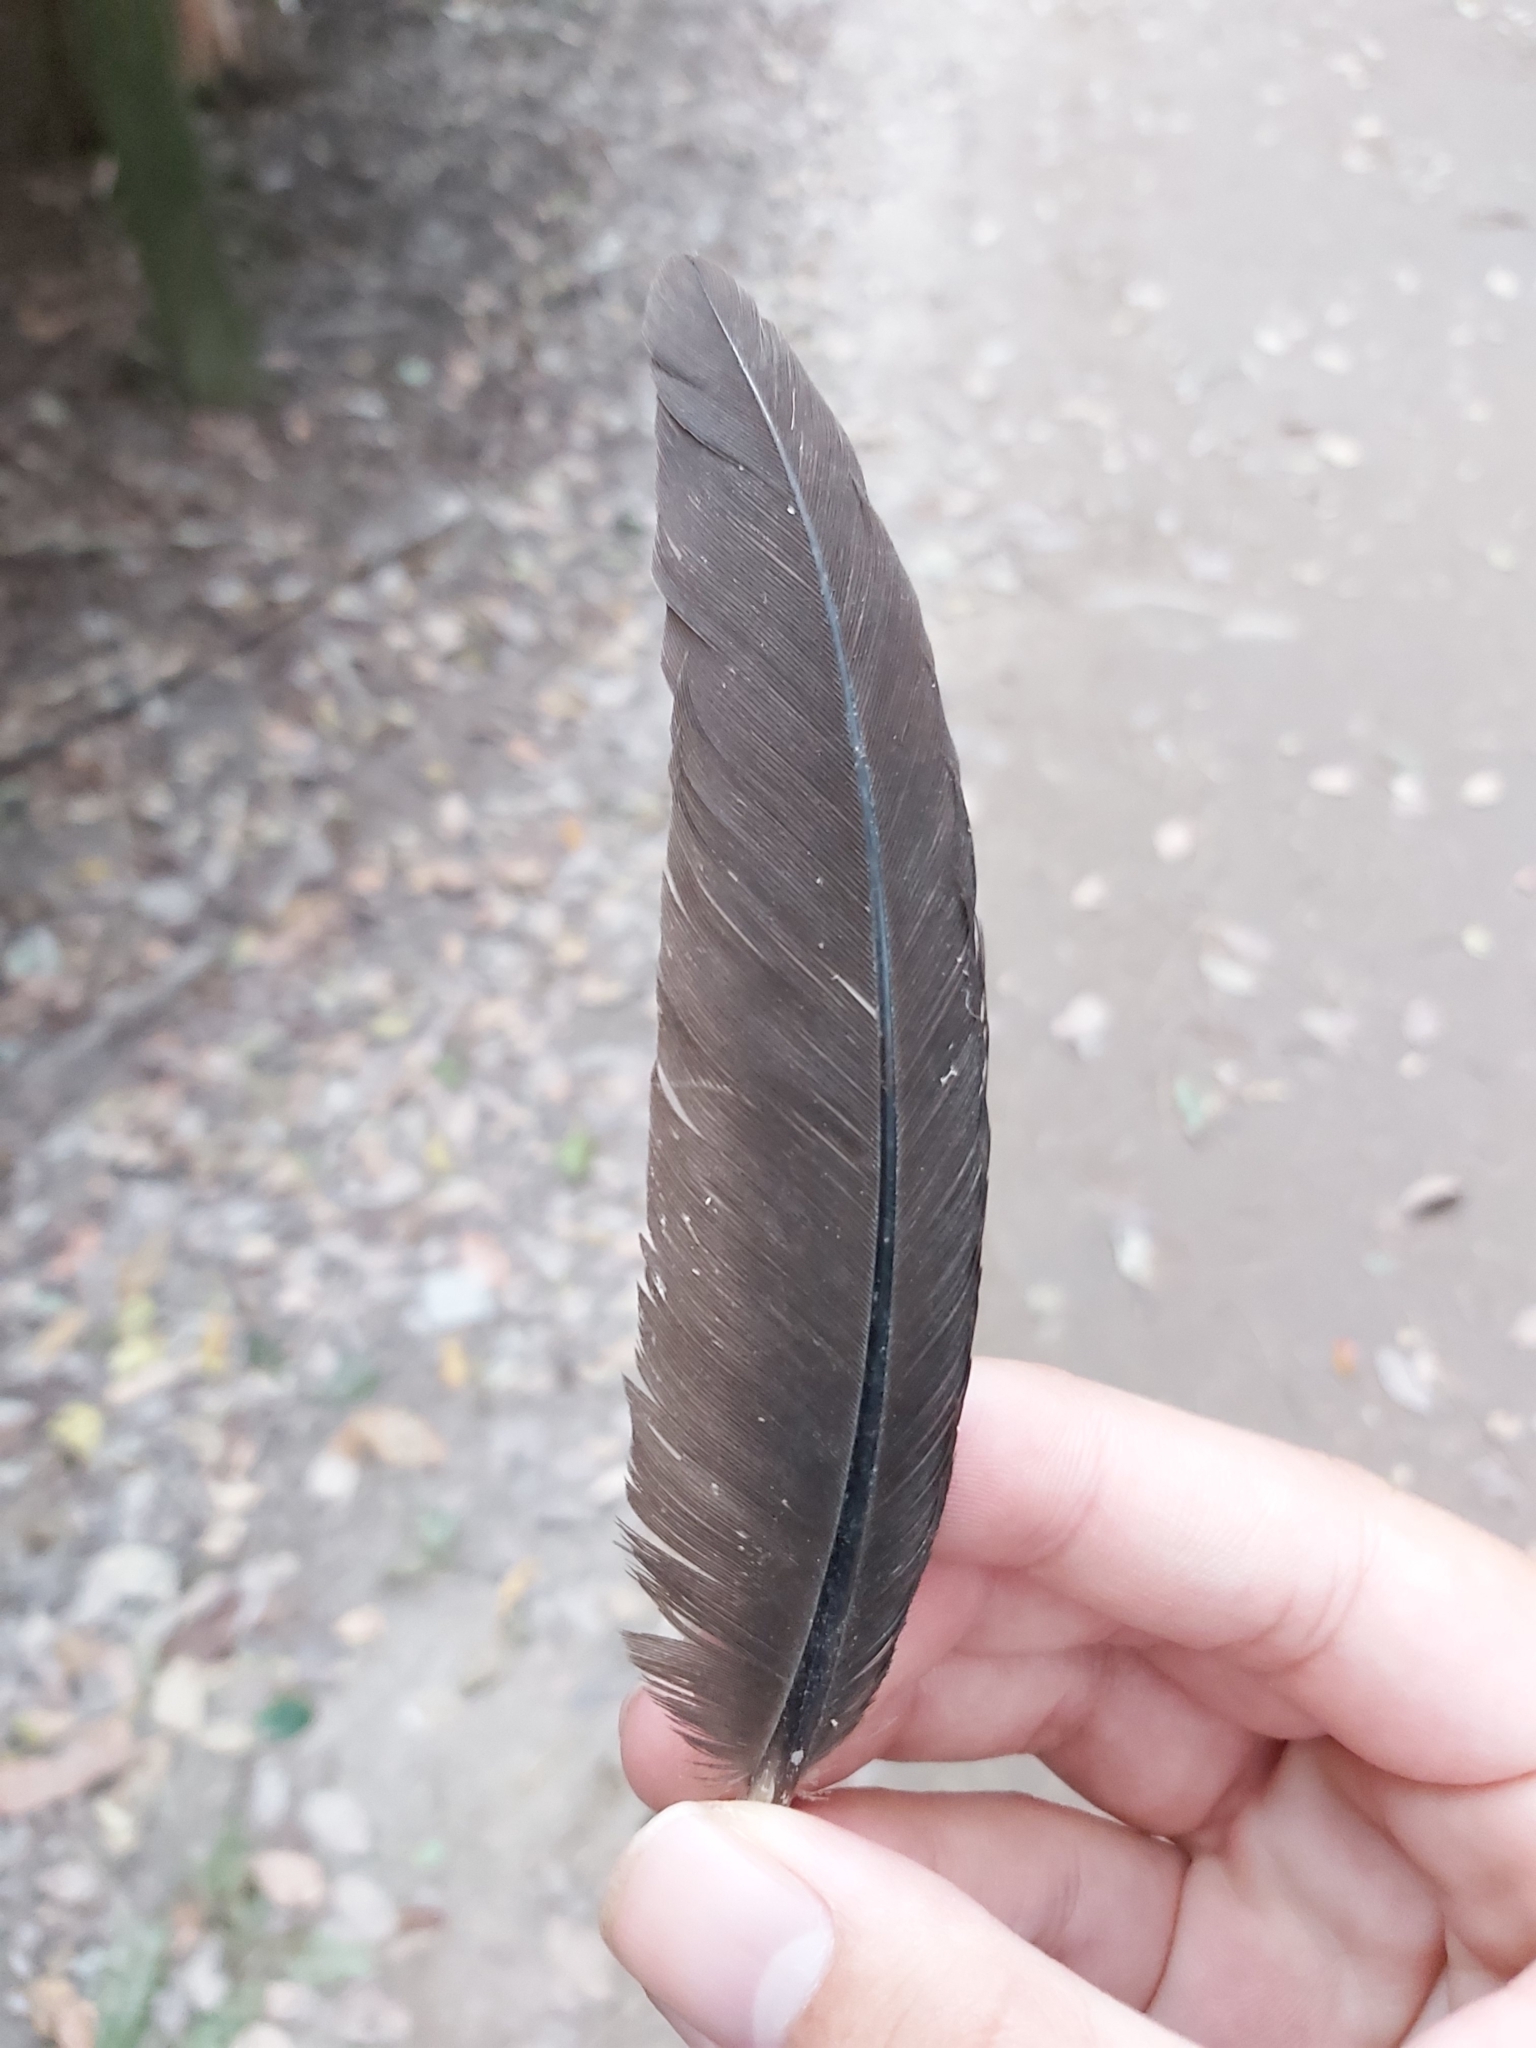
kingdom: Animalia
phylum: Chordata
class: Aves
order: Galliformes
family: Megapodiidae
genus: Alectura
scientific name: Alectura lathami
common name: Australian brushturkey
